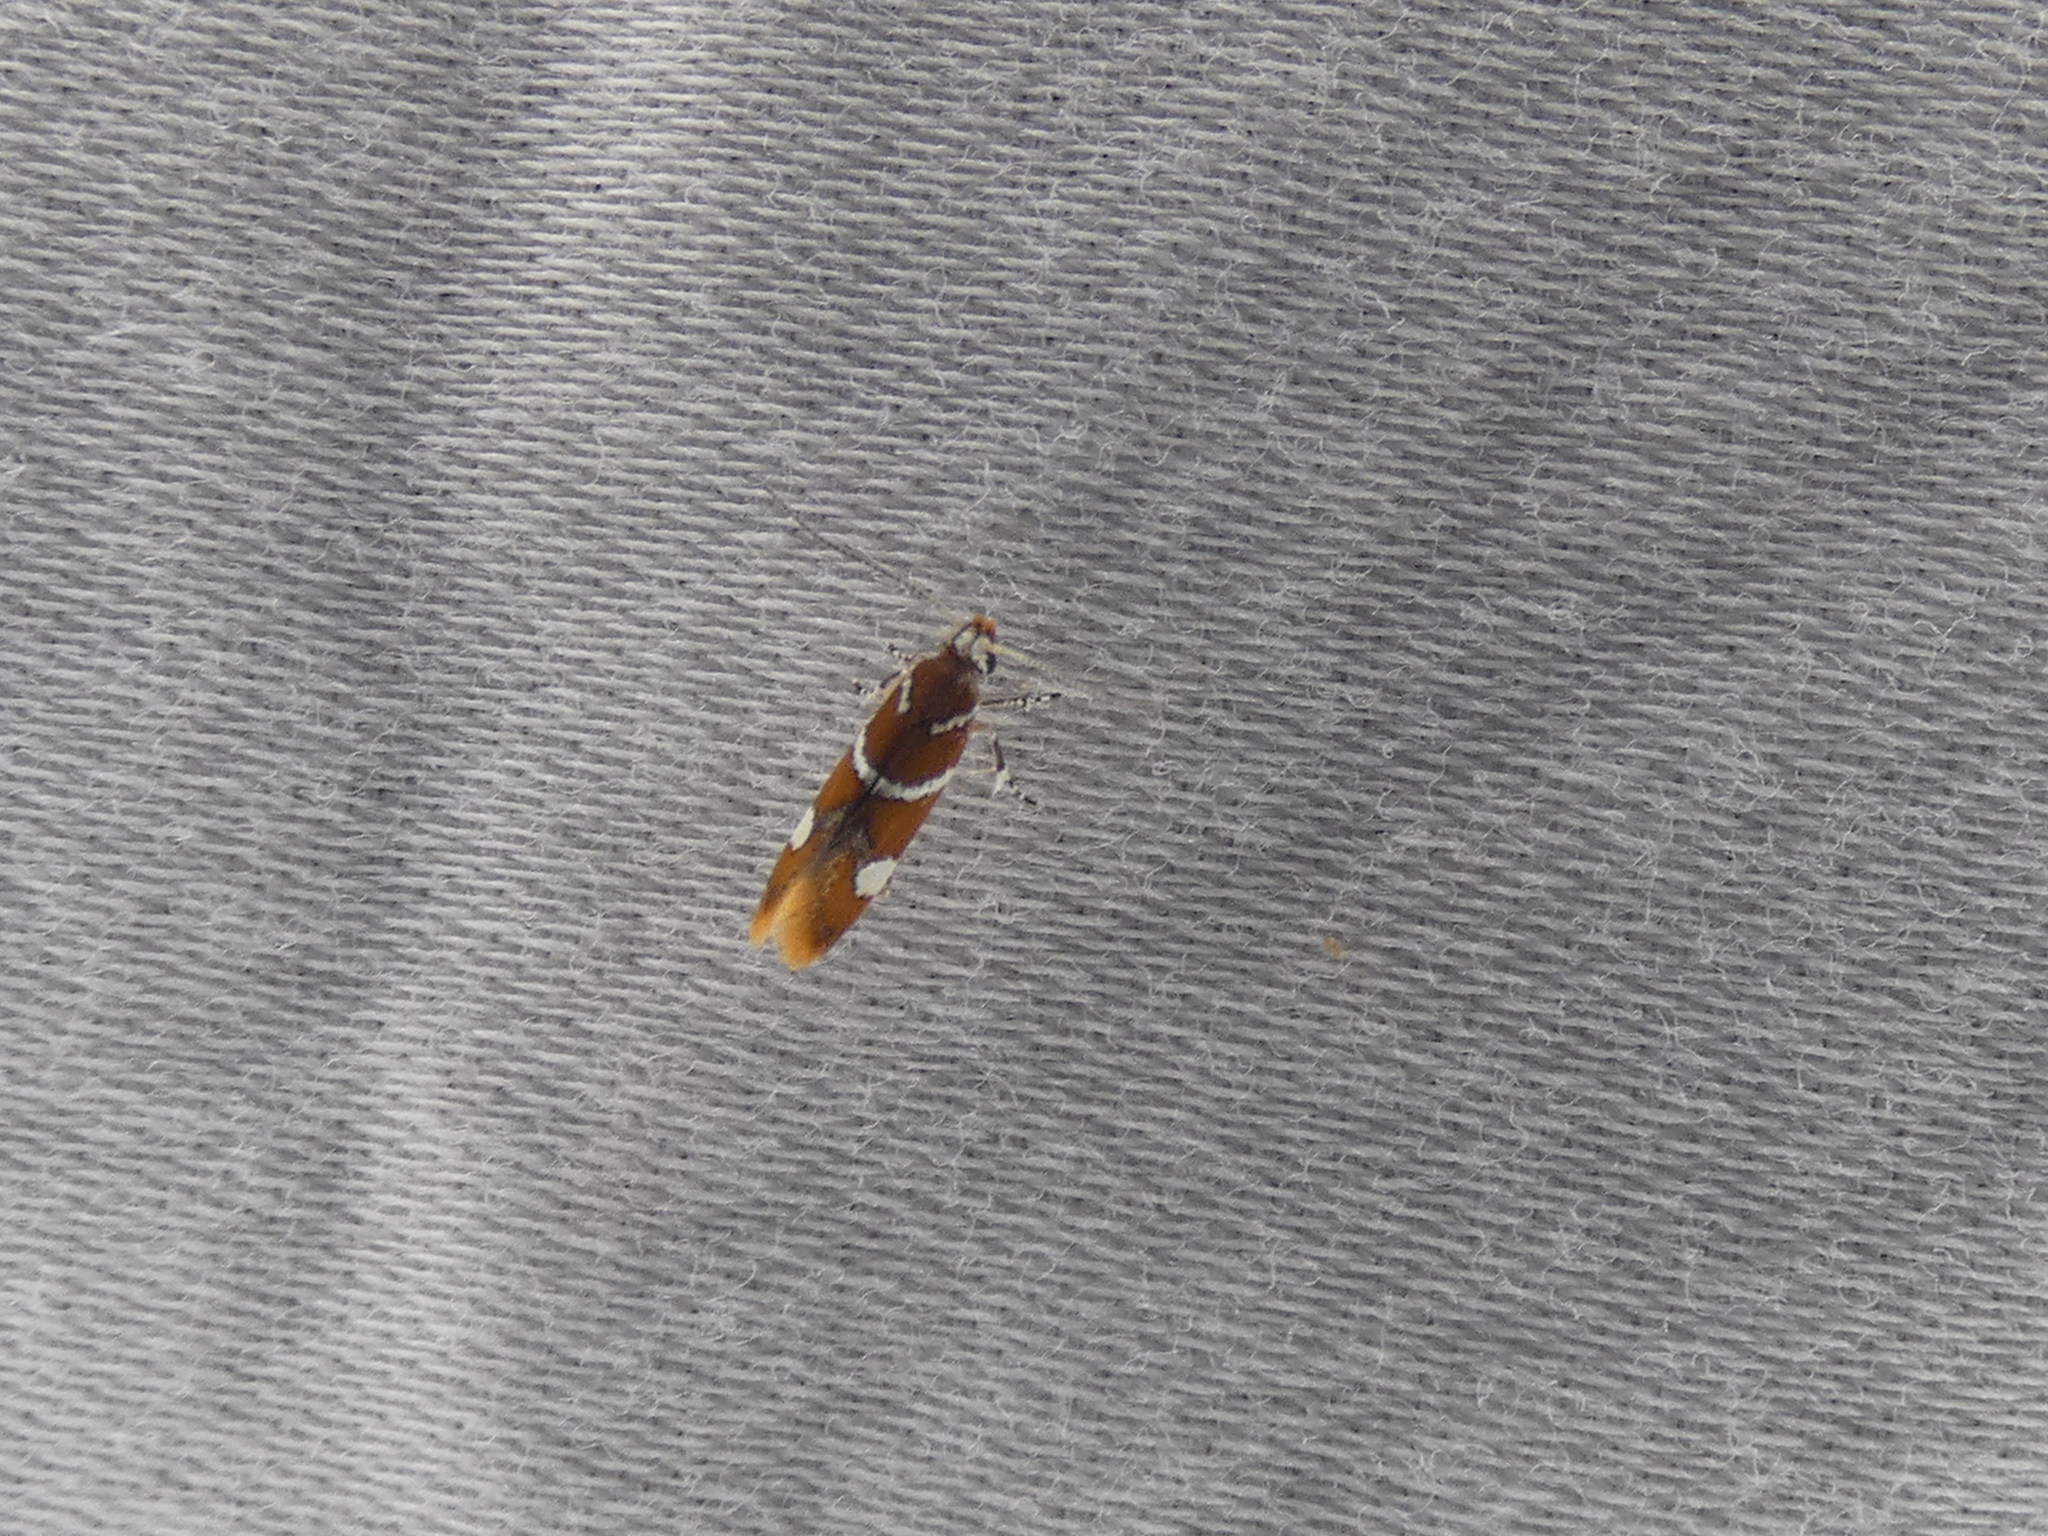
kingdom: Animalia
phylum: Arthropoda
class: Insecta
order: Lepidoptera
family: Oecophoridae
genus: Promalactis
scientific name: Promalactis suzukiella
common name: Moth
